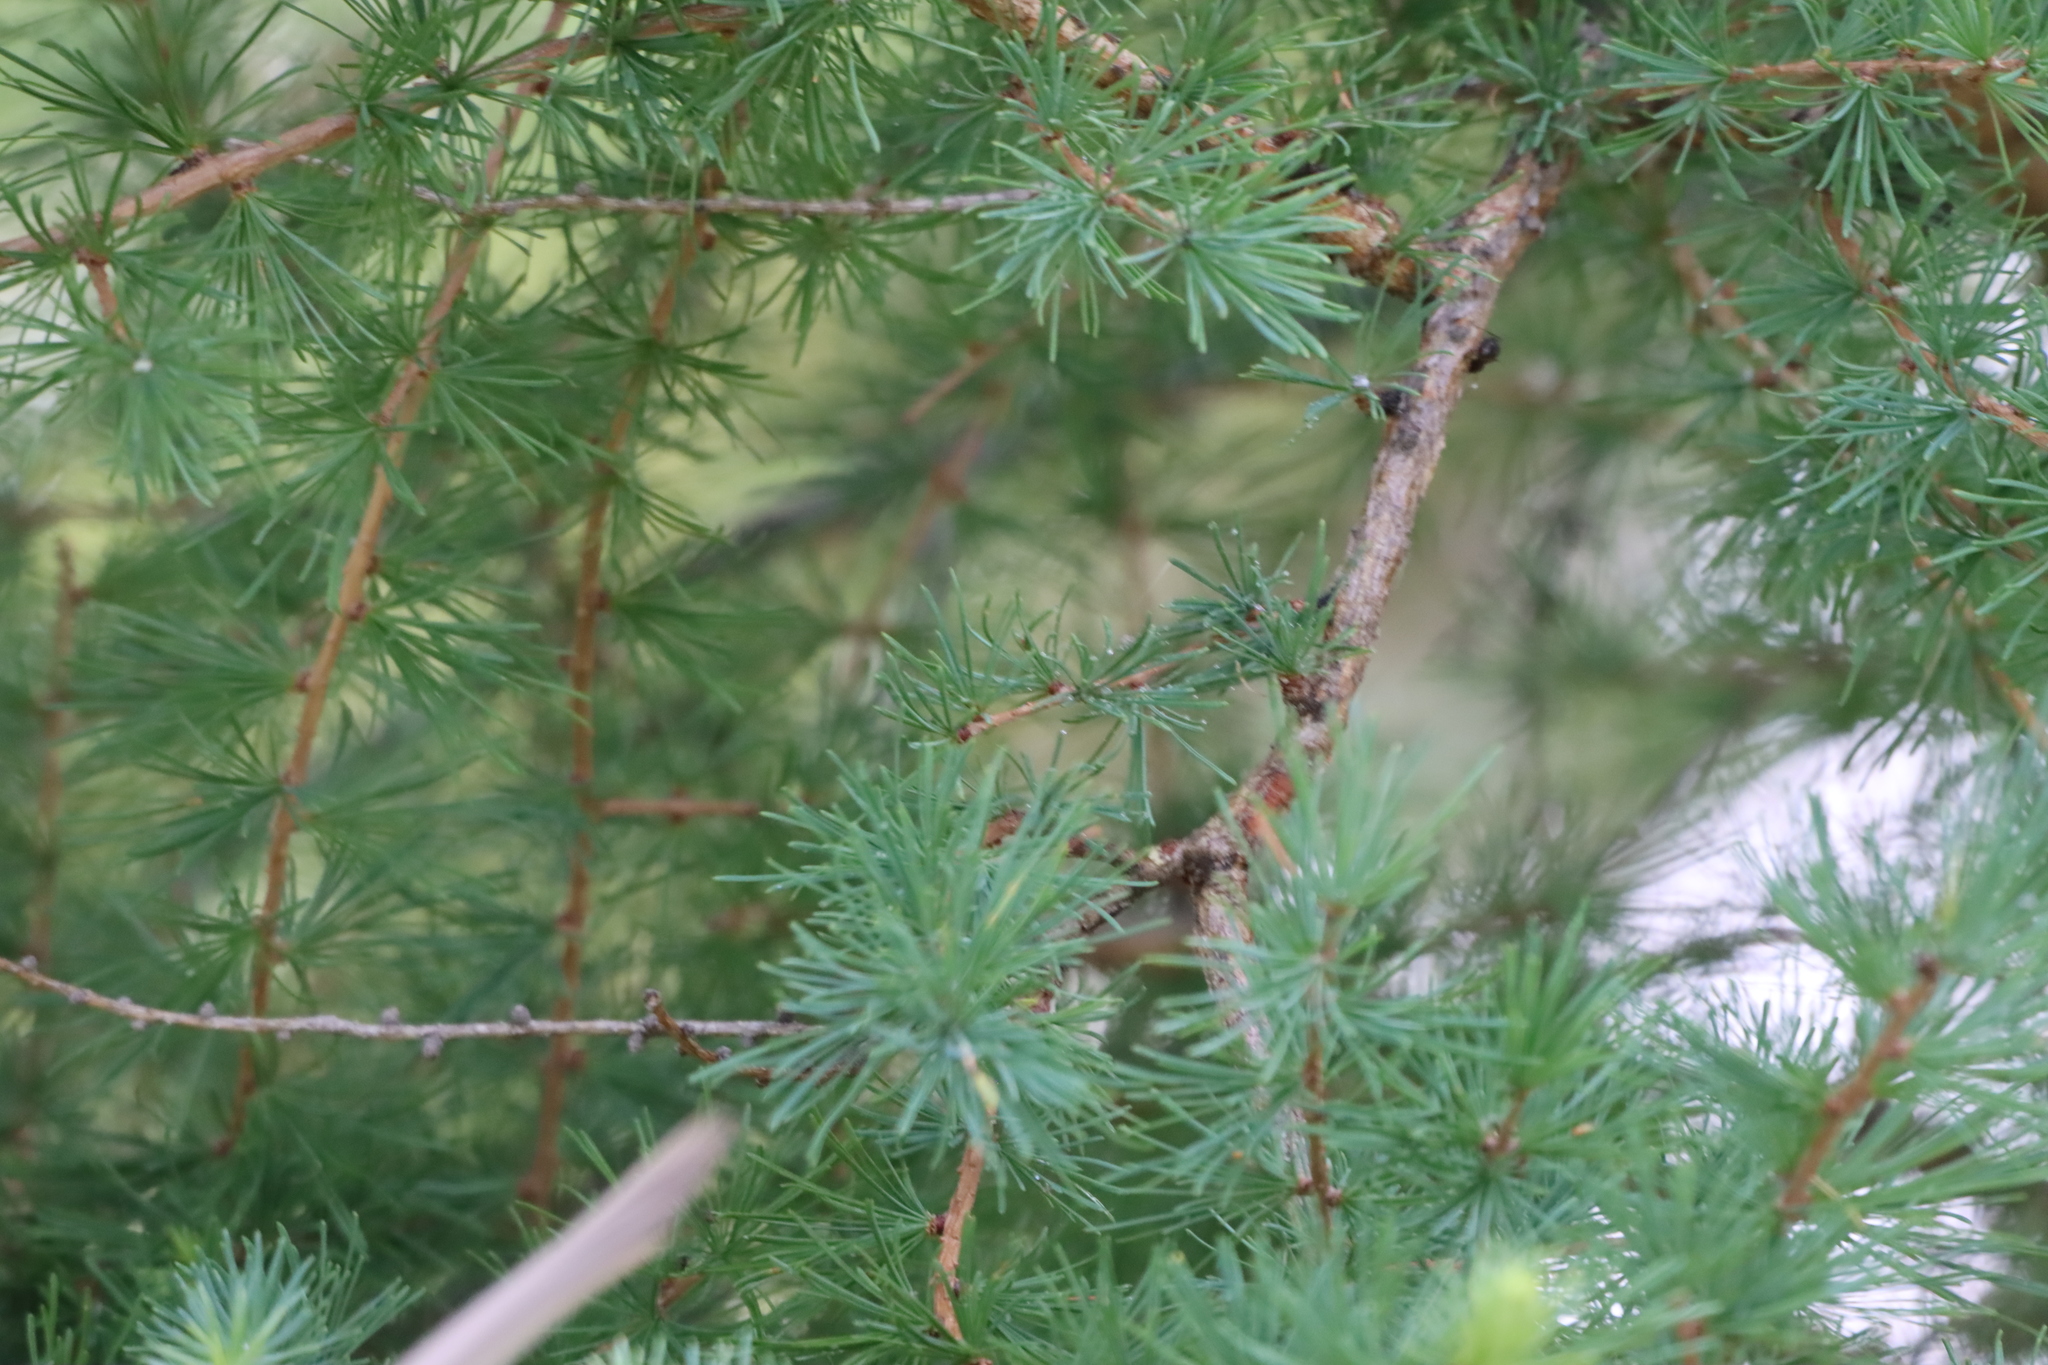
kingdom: Plantae
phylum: Tracheophyta
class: Pinopsida
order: Pinales
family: Pinaceae
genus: Larix
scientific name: Larix laricina
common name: American larch
